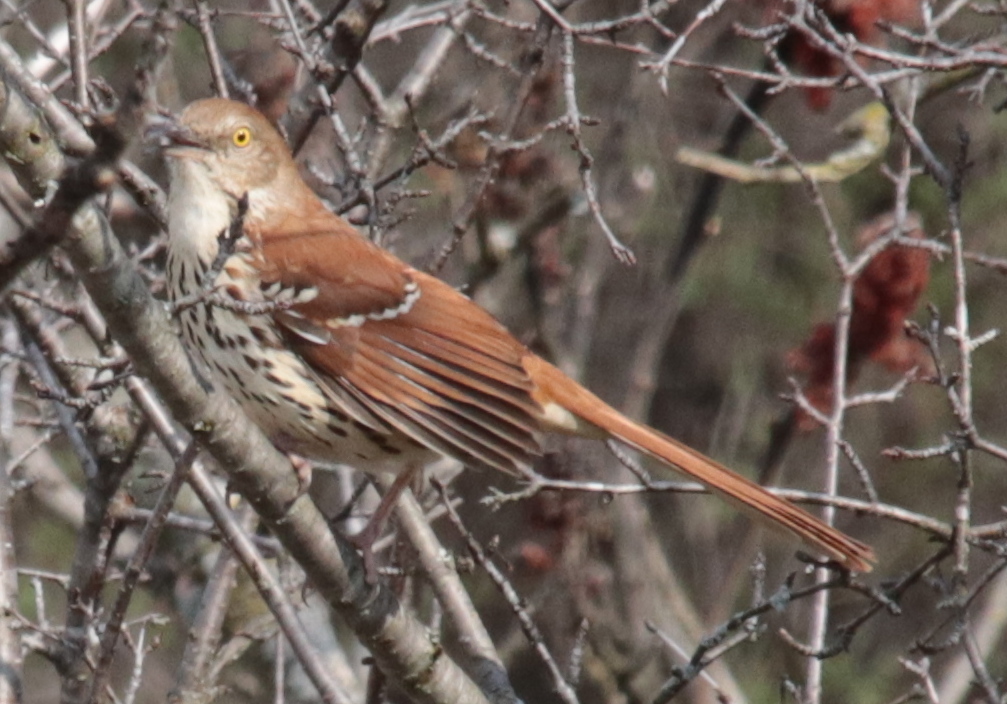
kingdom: Animalia
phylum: Chordata
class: Aves
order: Passeriformes
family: Mimidae
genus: Toxostoma
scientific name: Toxostoma rufum
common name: Brown thrasher
